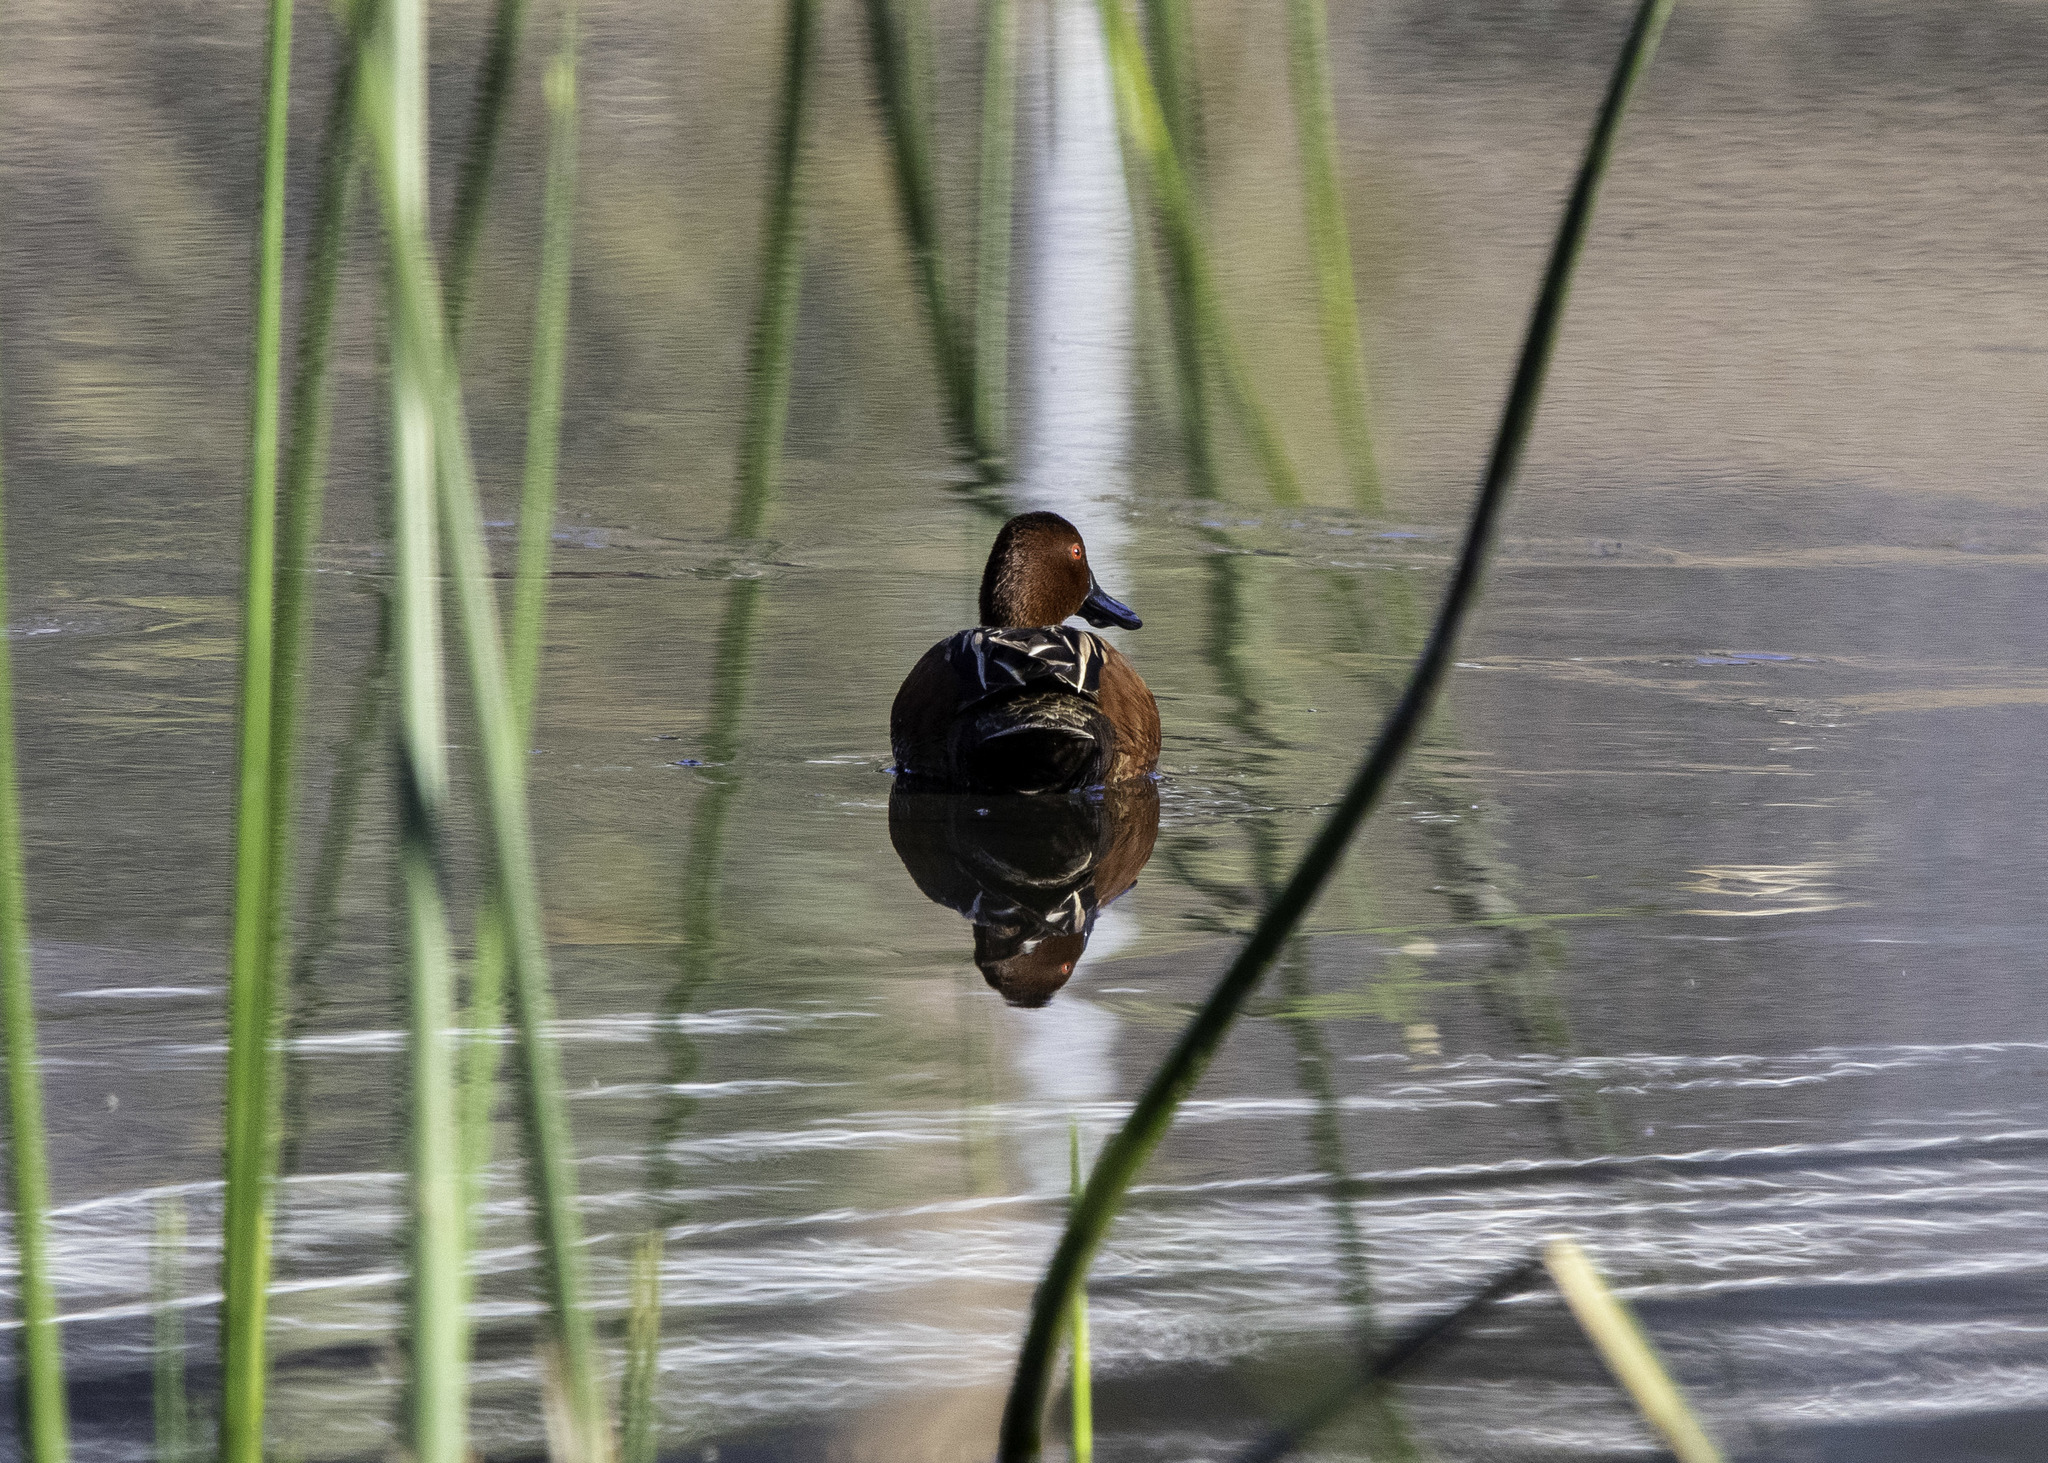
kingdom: Animalia
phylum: Chordata
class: Aves
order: Anseriformes
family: Anatidae
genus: Spatula
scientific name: Spatula cyanoptera
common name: Cinnamon teal
